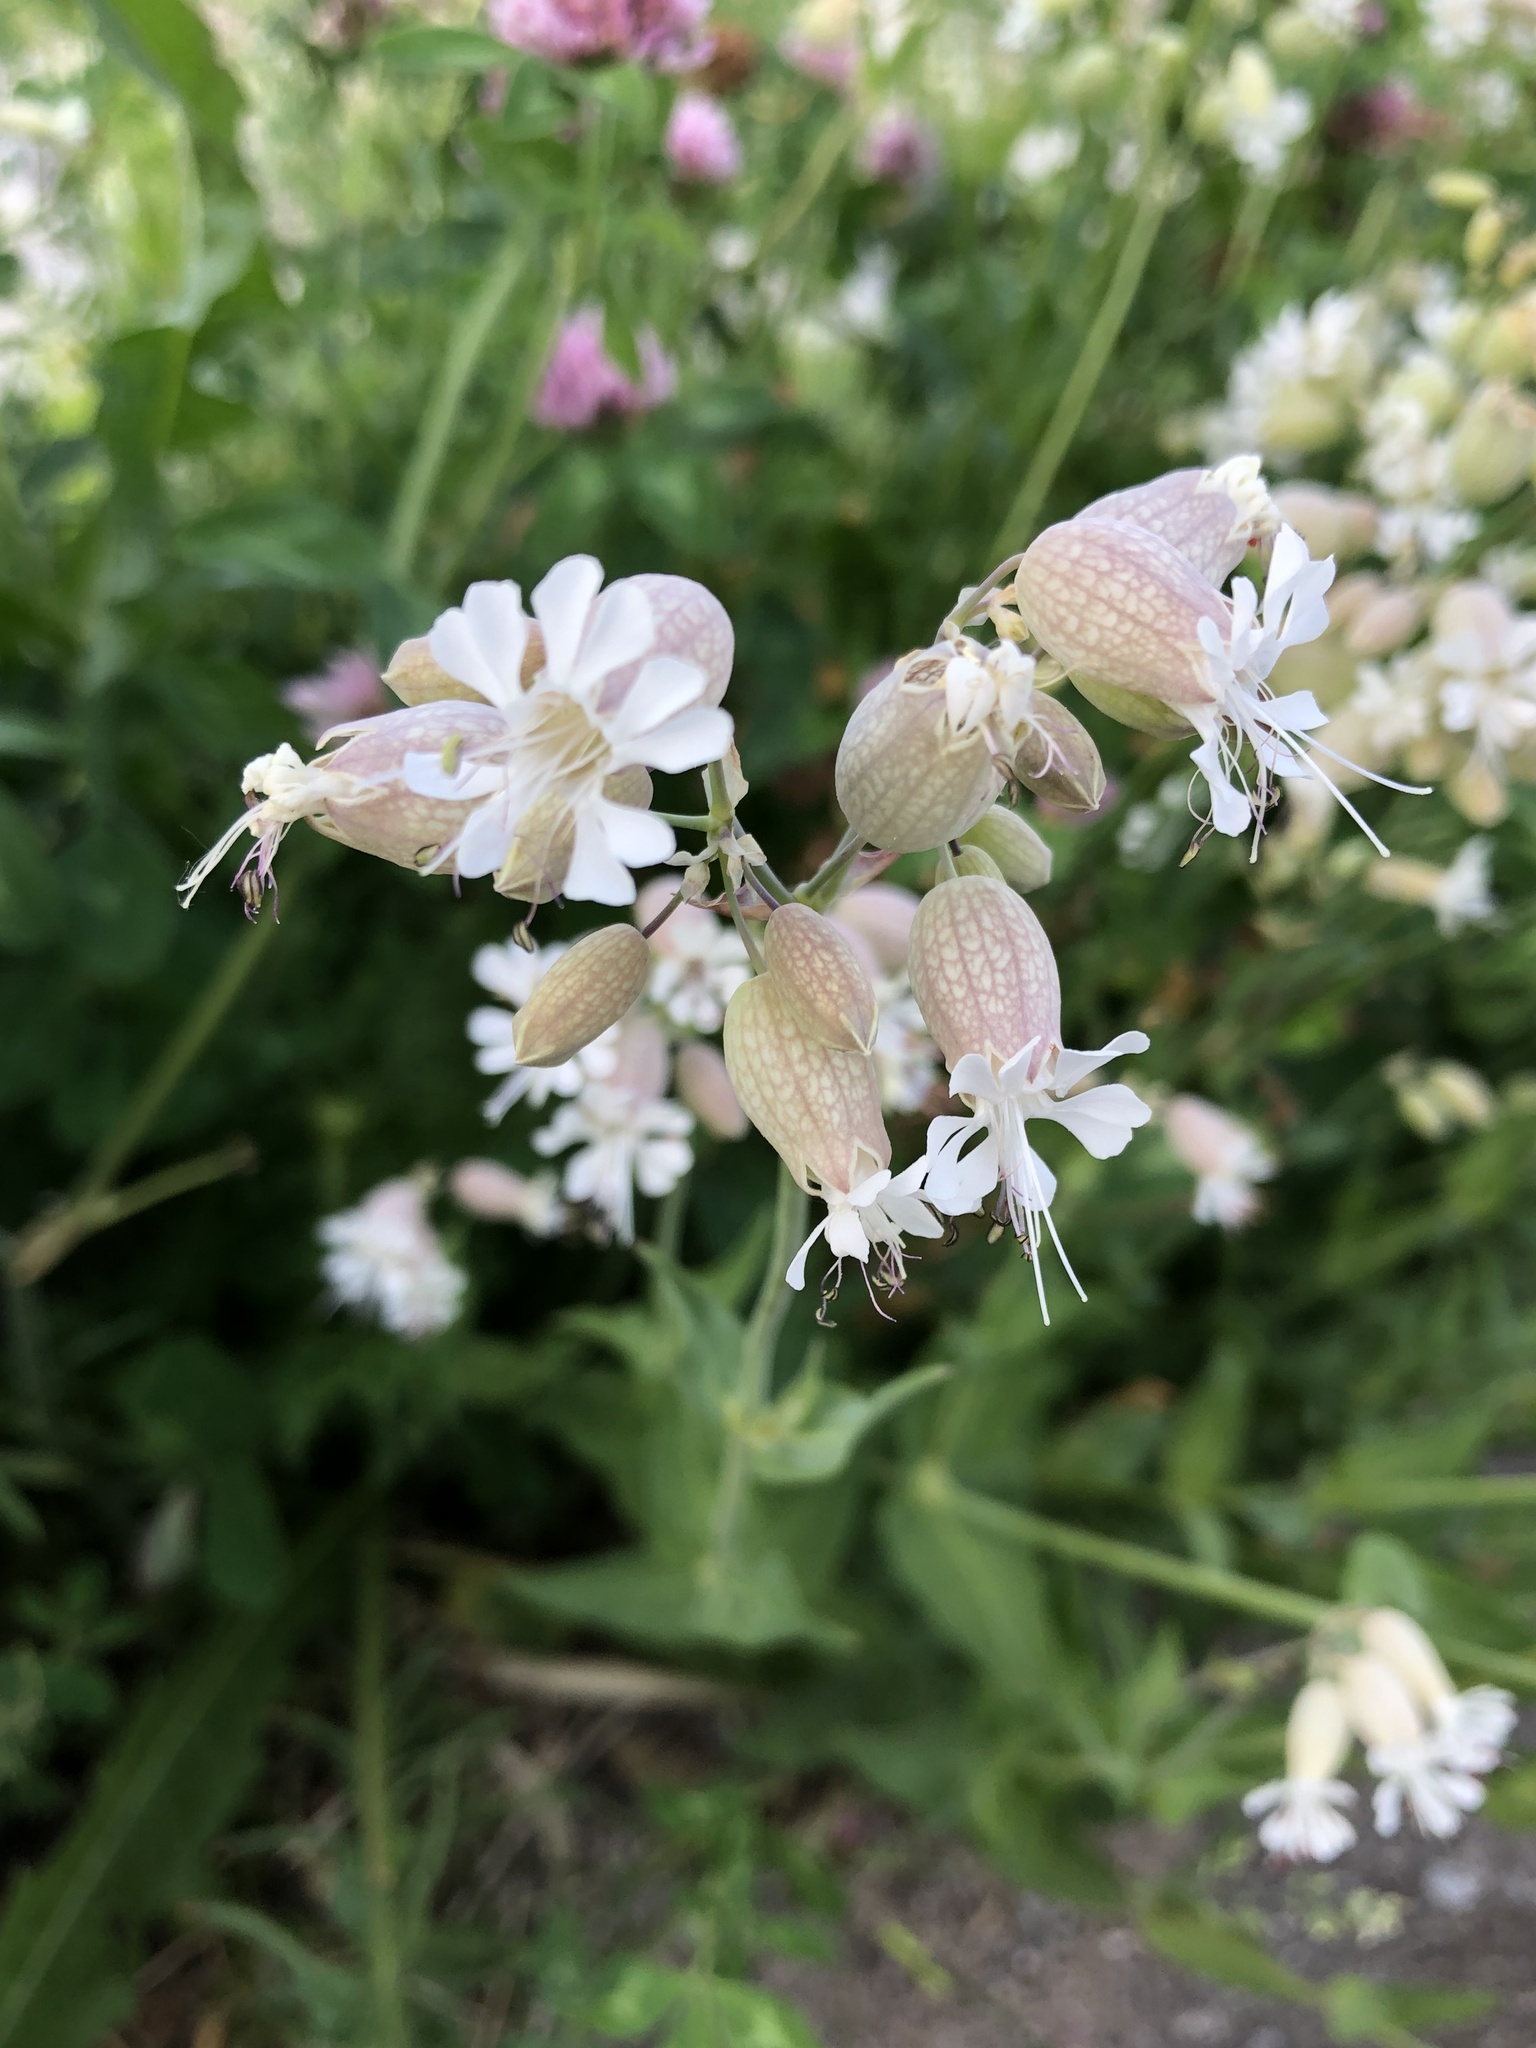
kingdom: Plantae
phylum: Tracheophyta
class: Magnoliopsida
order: Caryophyllales
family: Caryophyllaceae
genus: Silene
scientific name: Silene vulgaris
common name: Bladder campion
